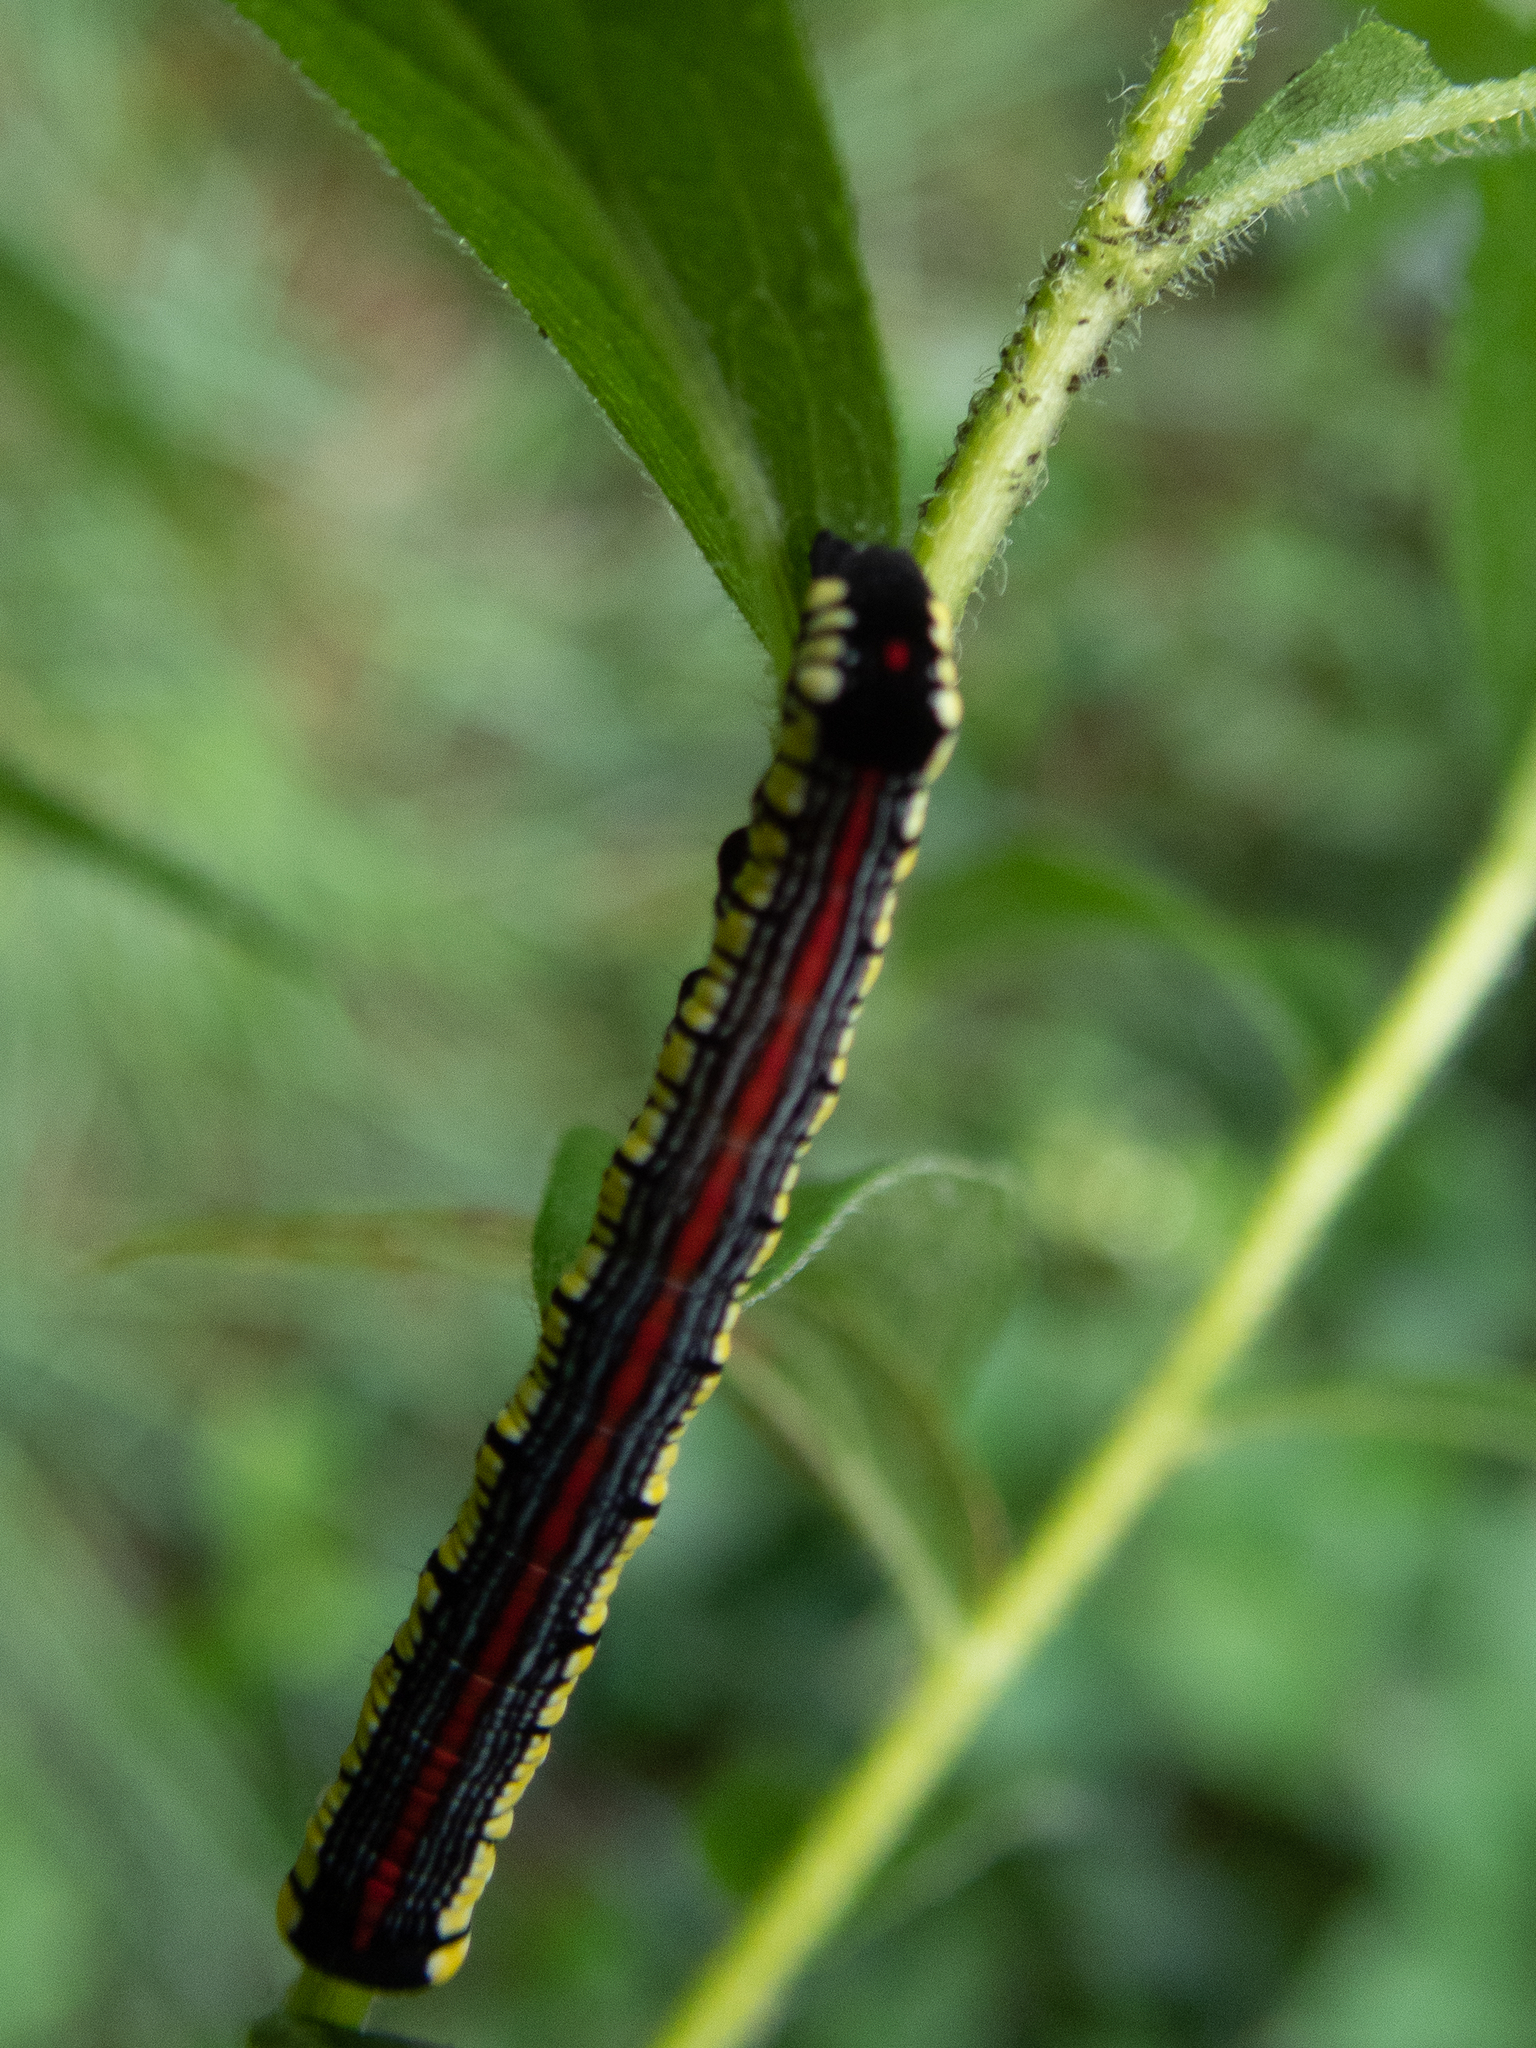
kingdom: Animalia
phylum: Arthropoda
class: Insecta
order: Lepidoptera
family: Noctuidae
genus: Cucullia
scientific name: Cucullia convexipennis
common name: Brown-hooded owlet
